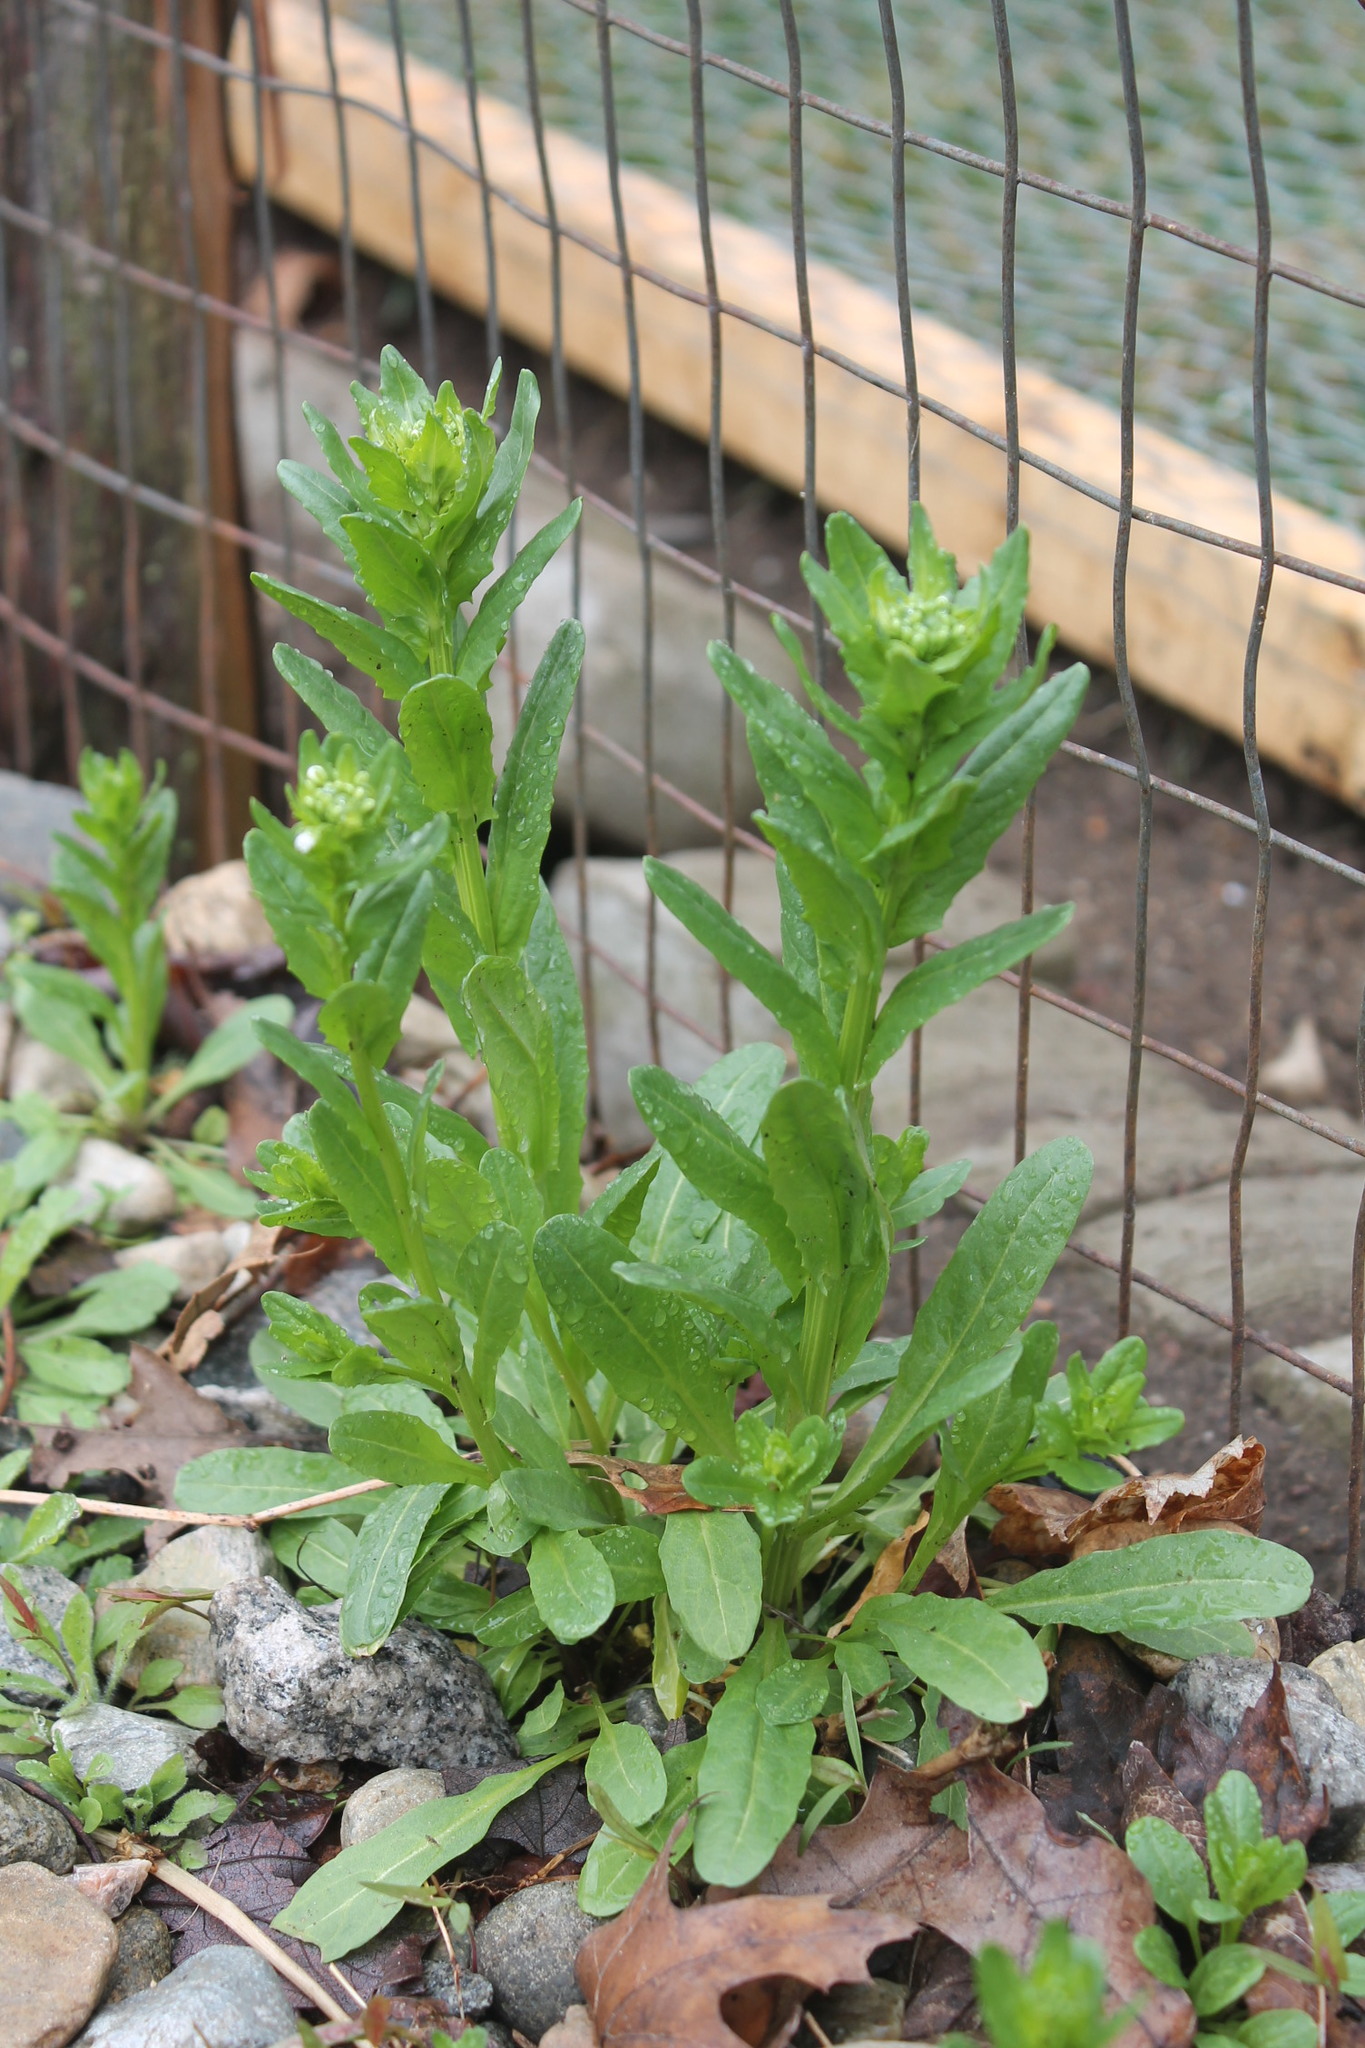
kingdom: Plantae
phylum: Tracheophyta
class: Magnoliopsida
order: Brassicales
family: Brassicaceae
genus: Thlaspi
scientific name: Thlaspi arvense
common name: Field pennycress
